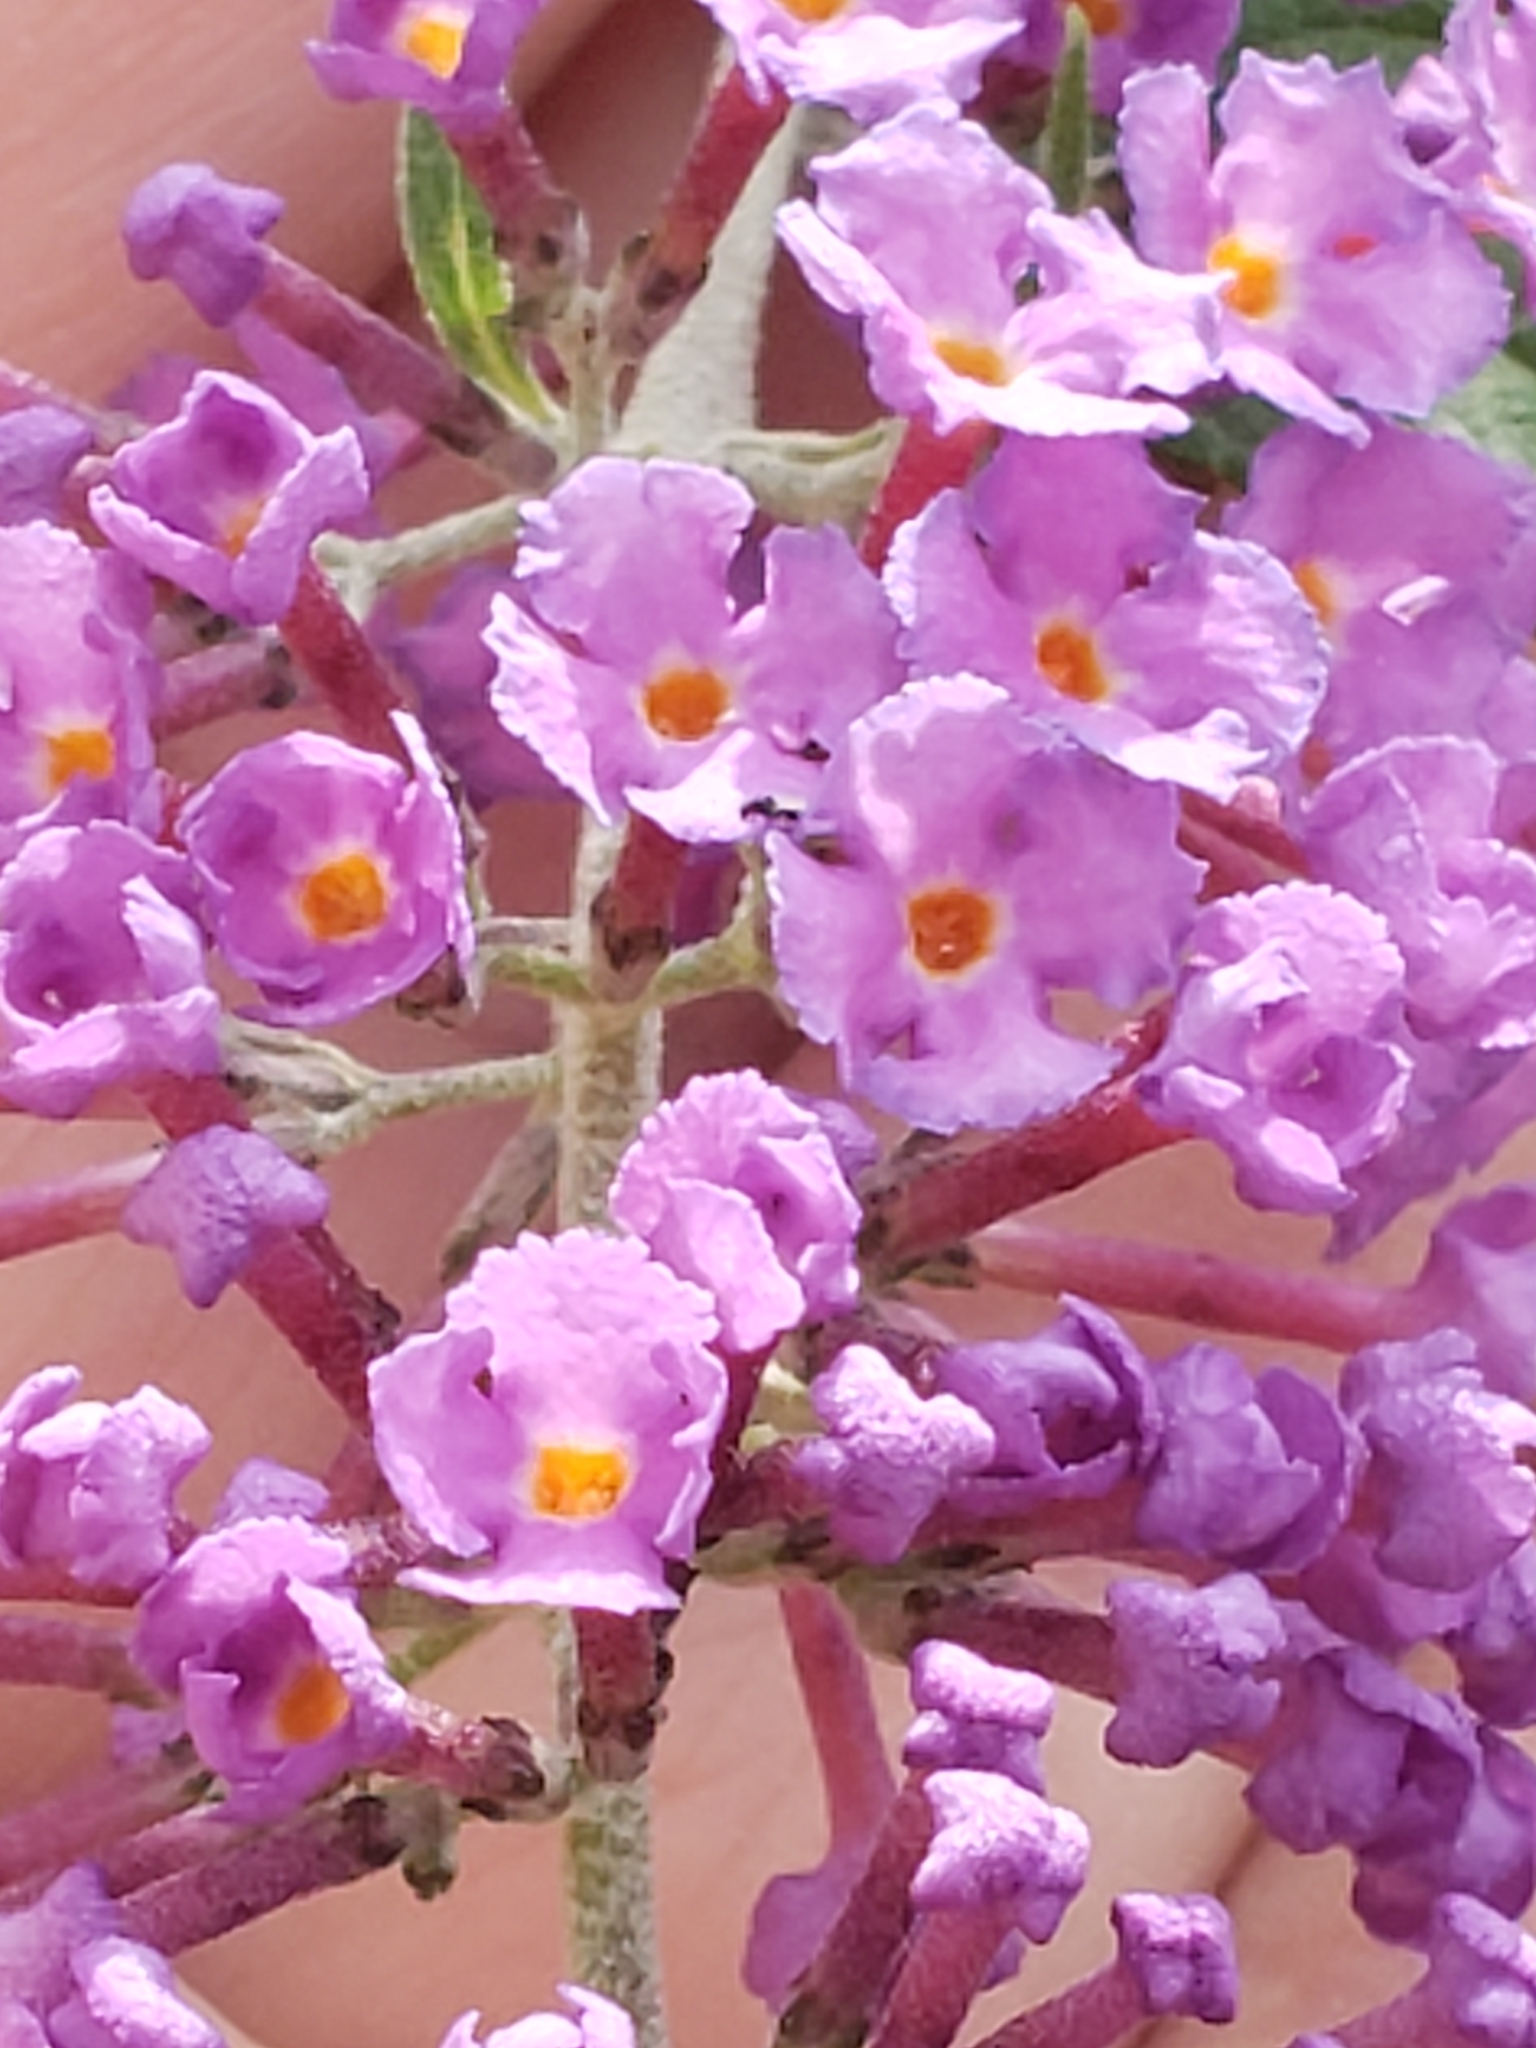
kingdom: Plantae
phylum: Tracheophyta
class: Magnoliopsida
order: Lamiales
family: Scrophulariaceae
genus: Buddleja
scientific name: Buddleja davidii
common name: Butterfly-bush
